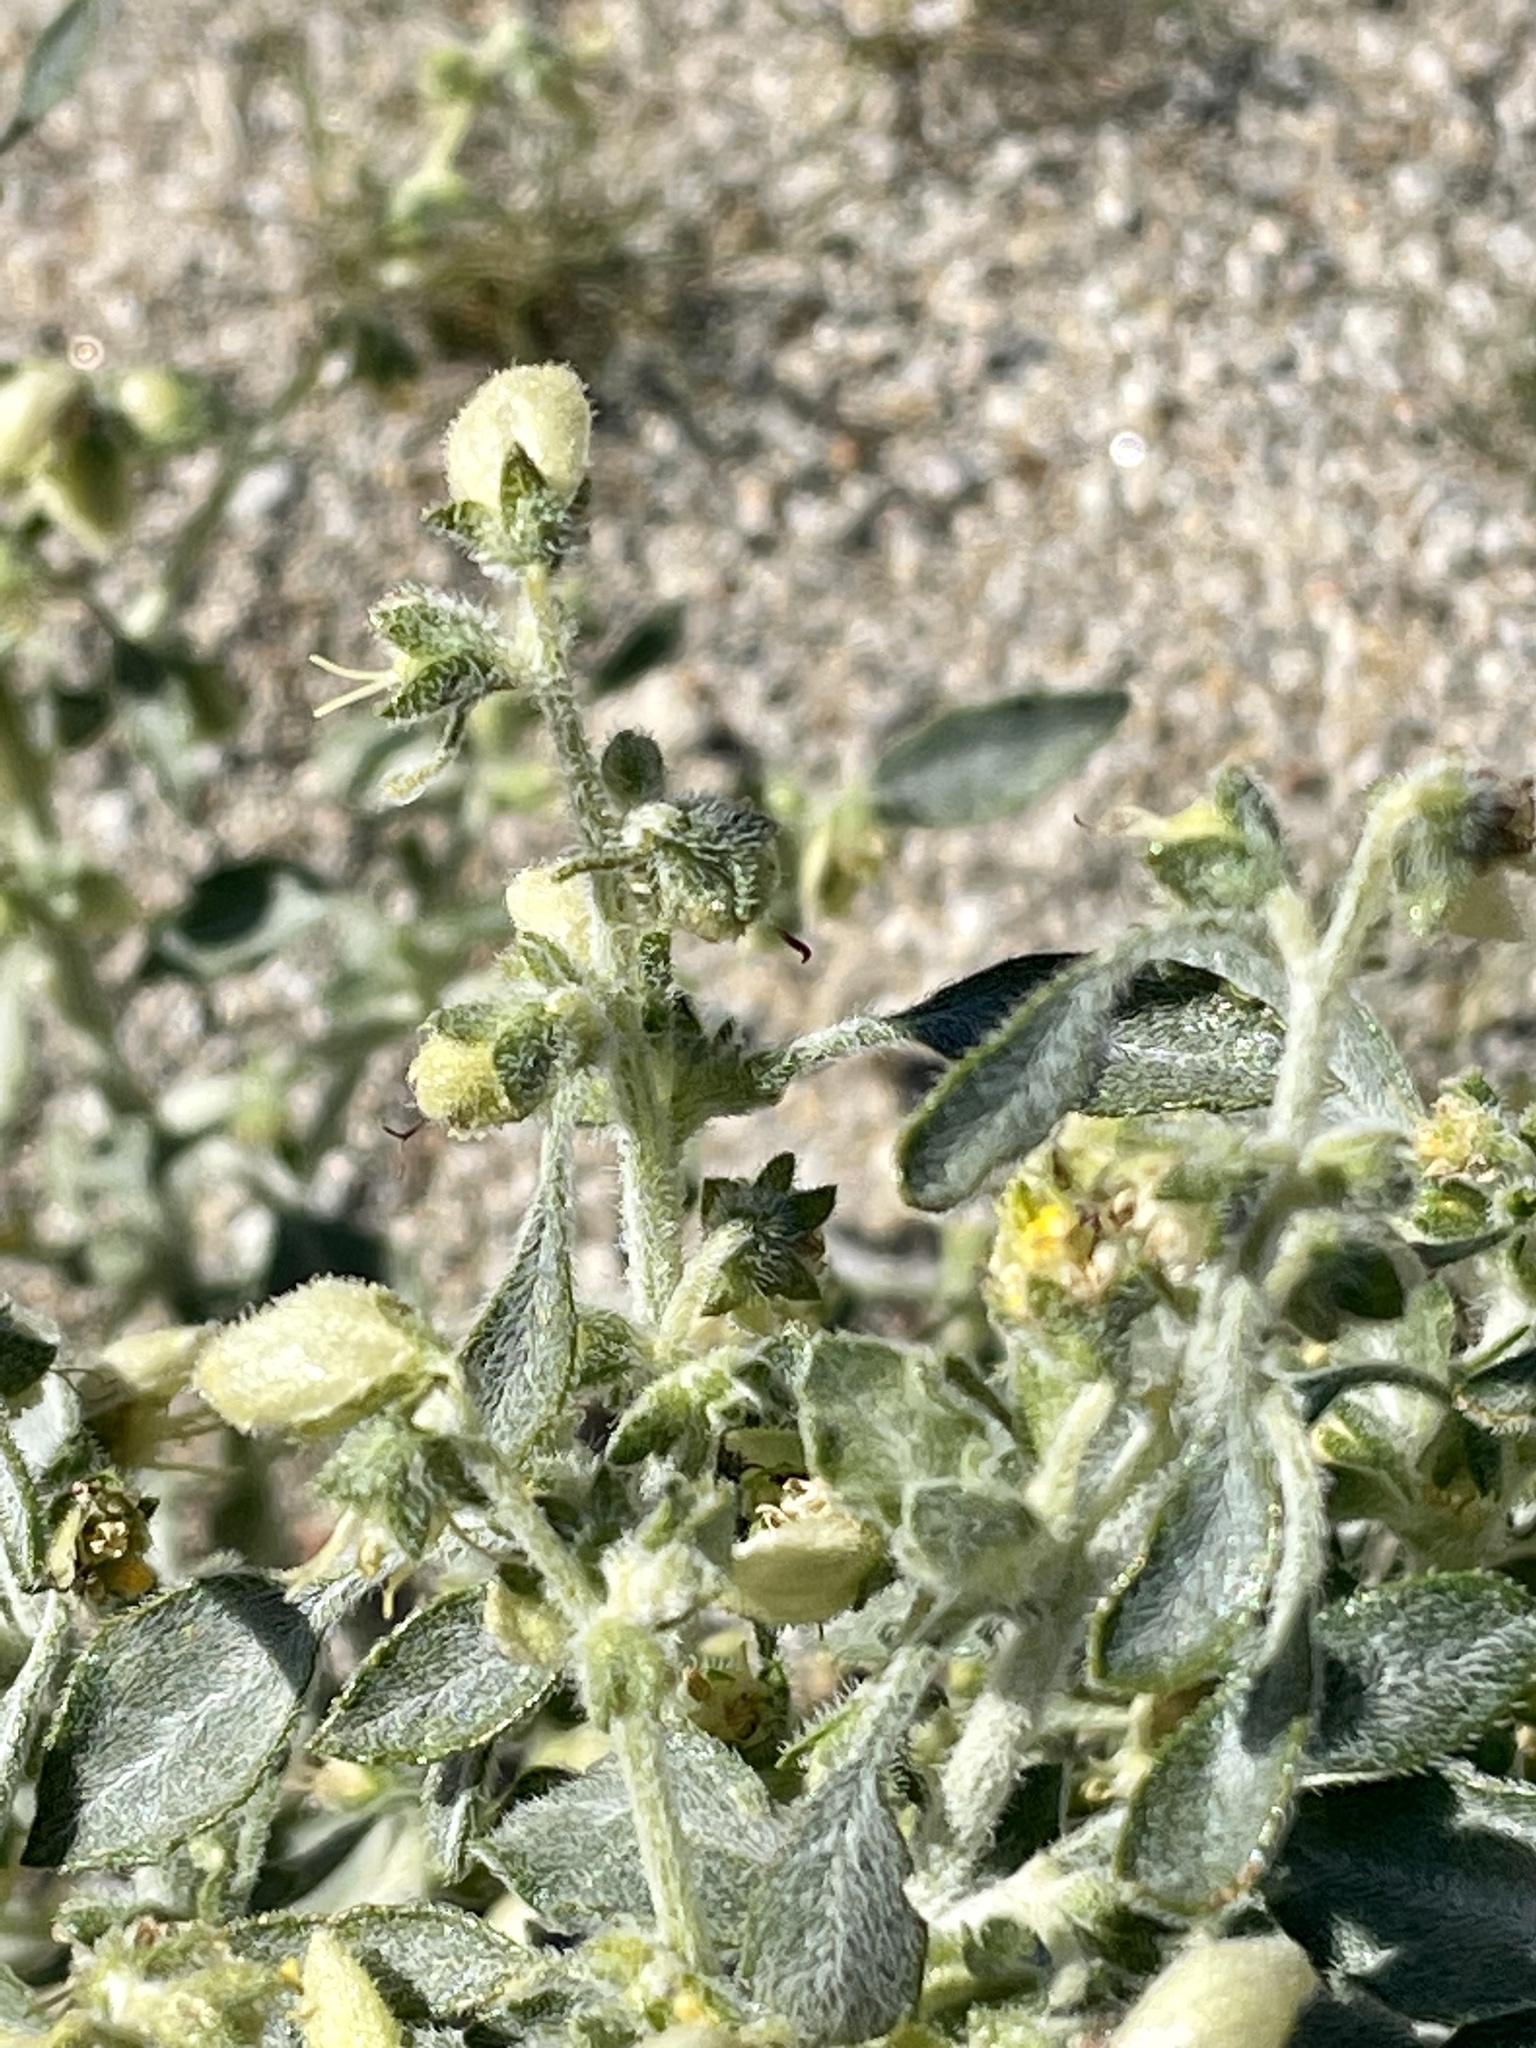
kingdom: Plantae
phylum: Tracheophyta
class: Magnoliopsida
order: Asterales
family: Asteraceae
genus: Dicoria
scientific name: Dicoria canescens
